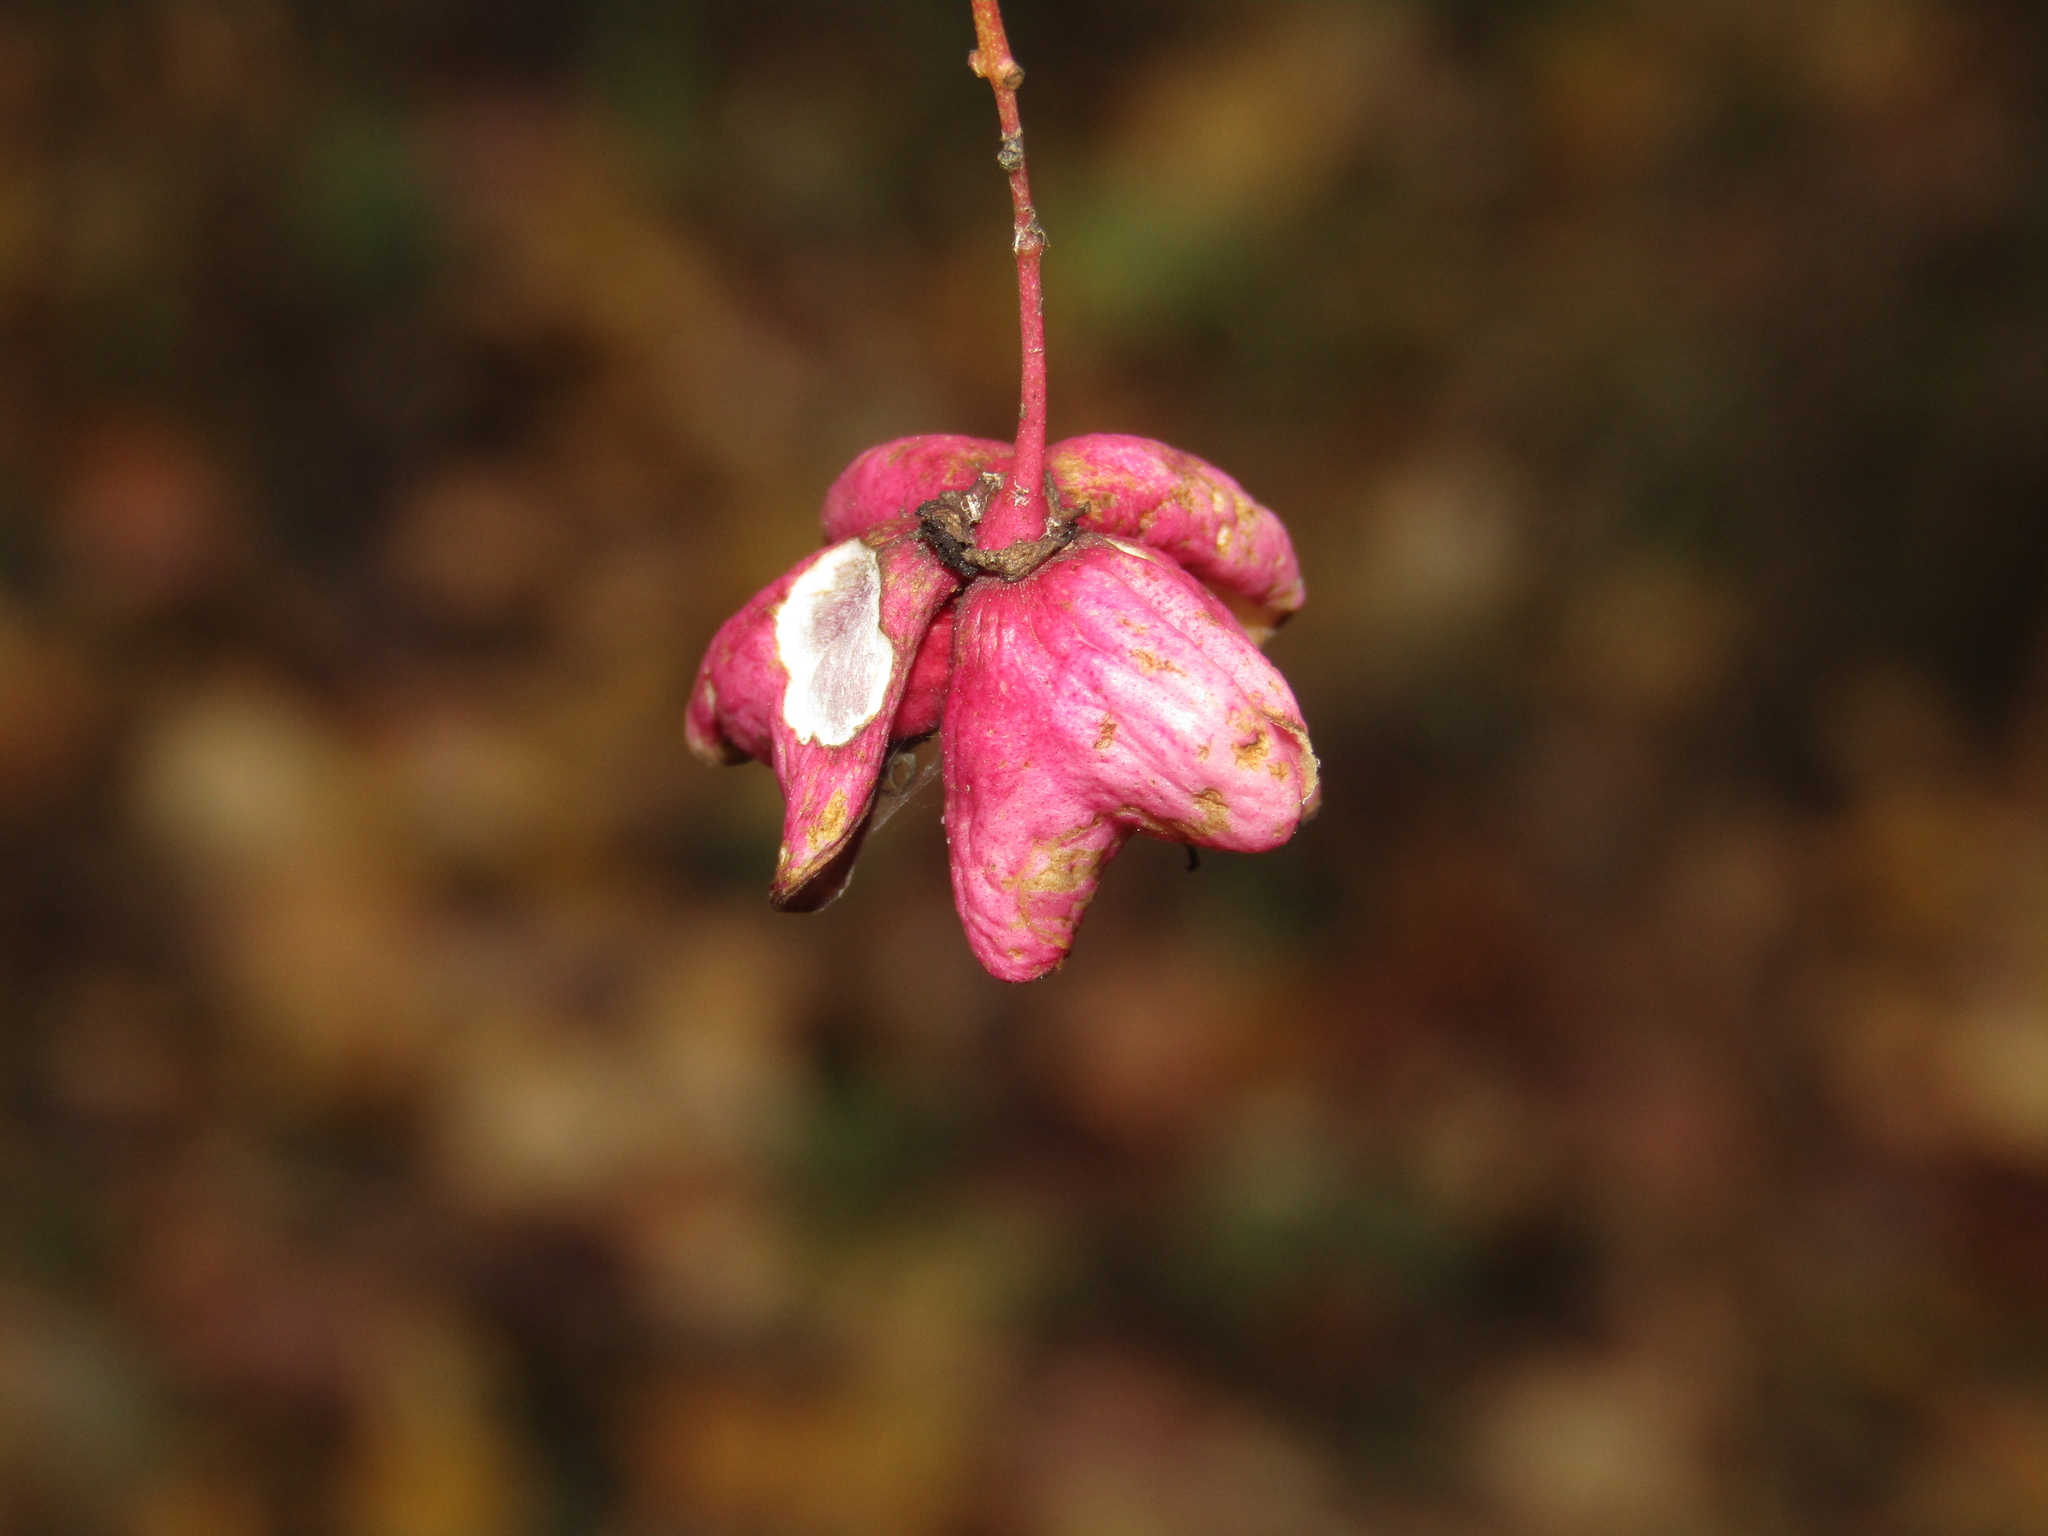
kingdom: Plantae
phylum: Tracheophyta
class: Magnoliopsida
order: Celastrales
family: Celastraceae
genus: Euonymus
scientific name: Euonymus verrucosus
